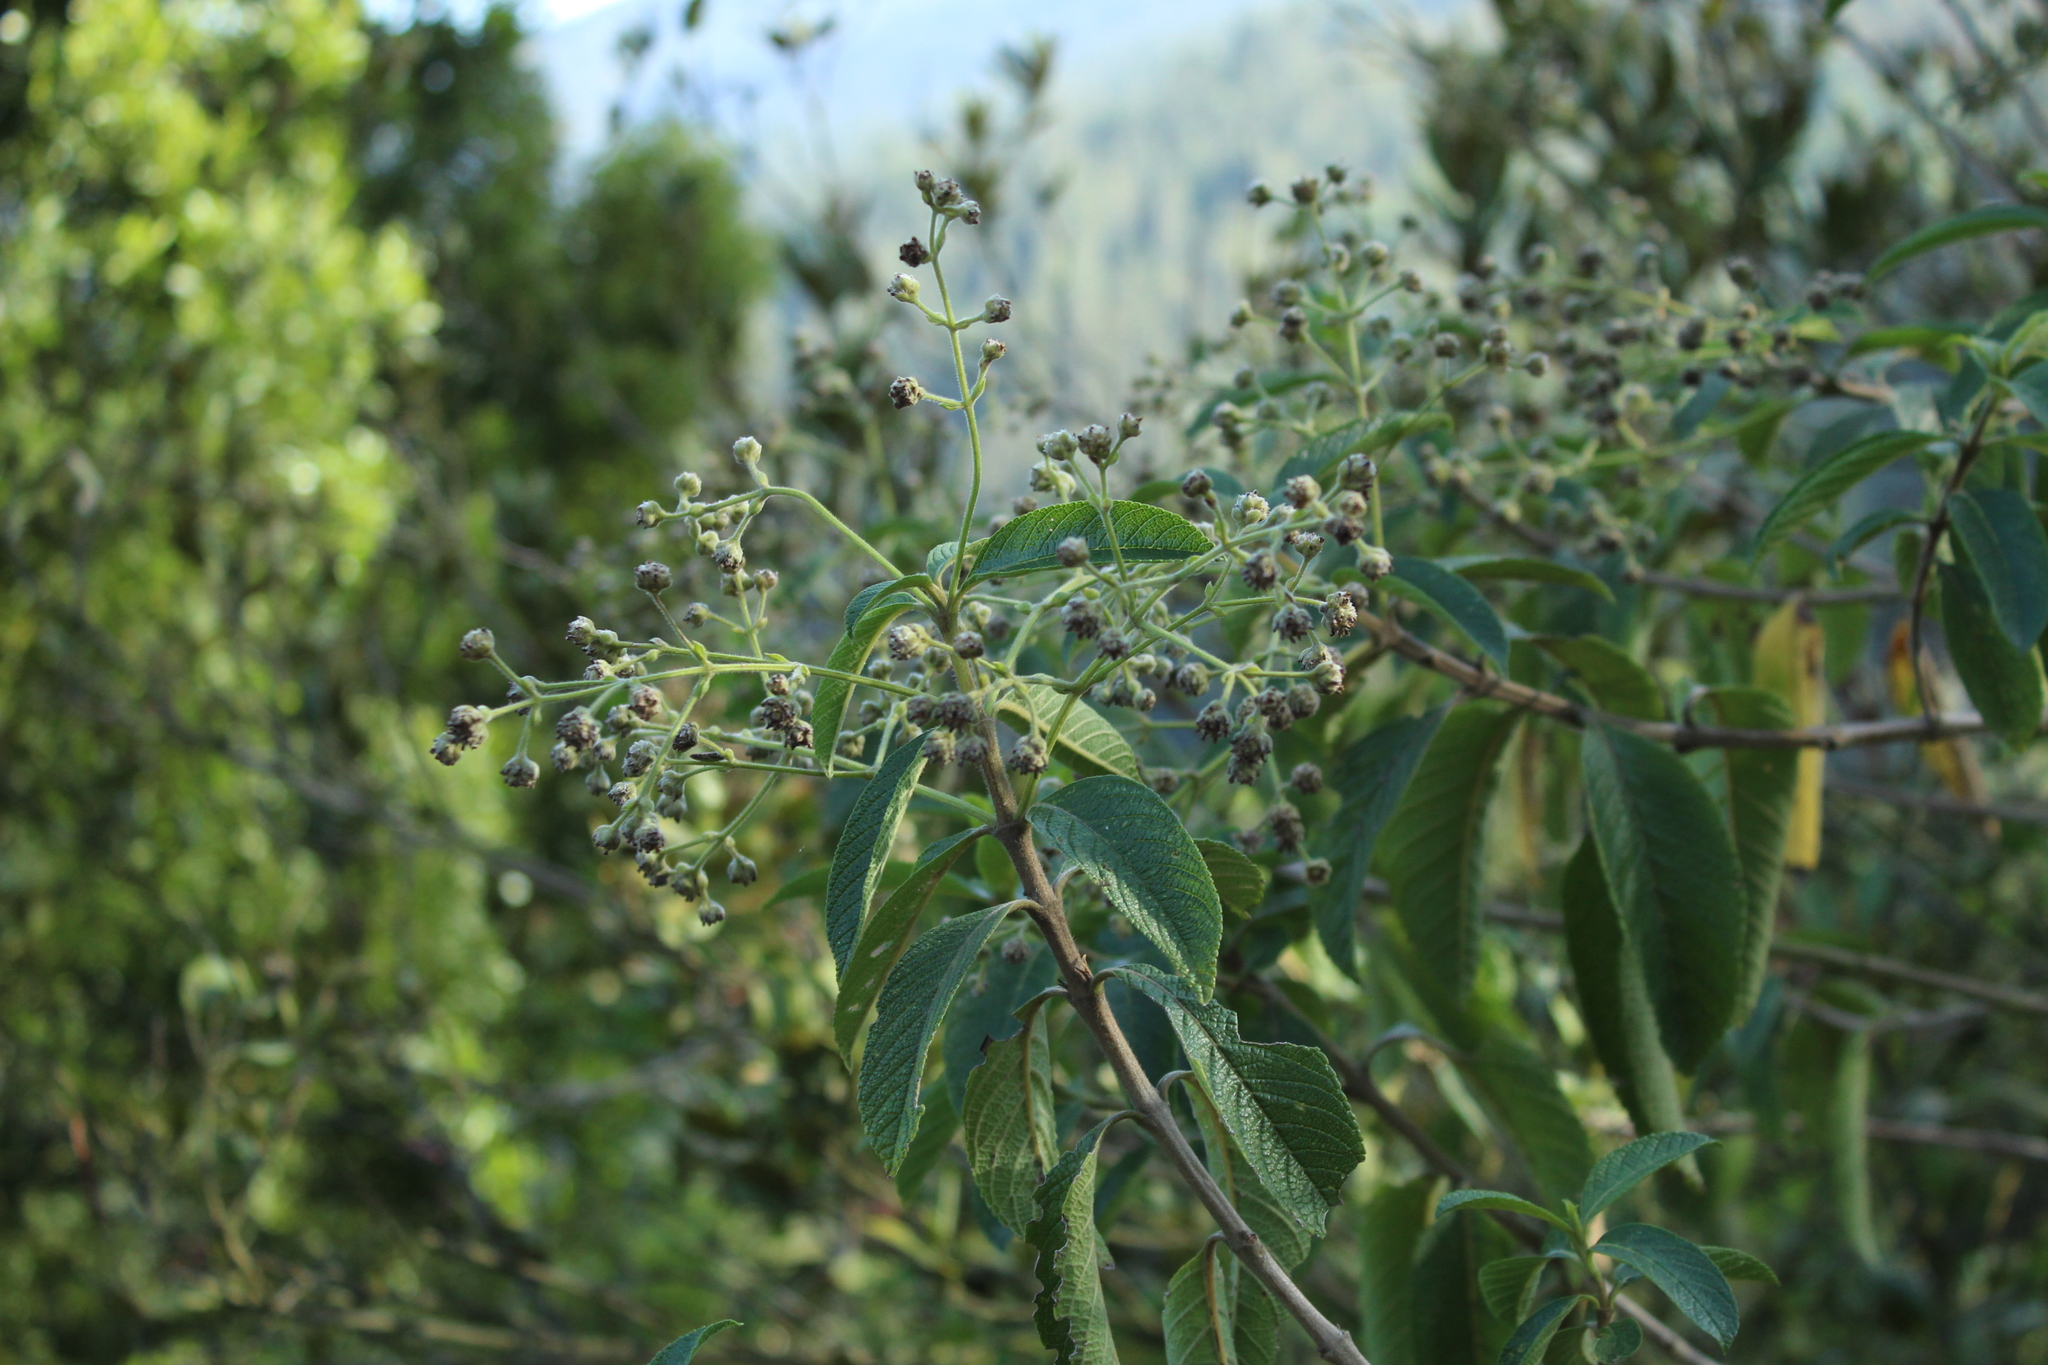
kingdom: Plantae
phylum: Tracheophyta
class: Magnoliopsida
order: Lamiales
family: Verbenaceae
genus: Lippia
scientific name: Lippia hirsuta
